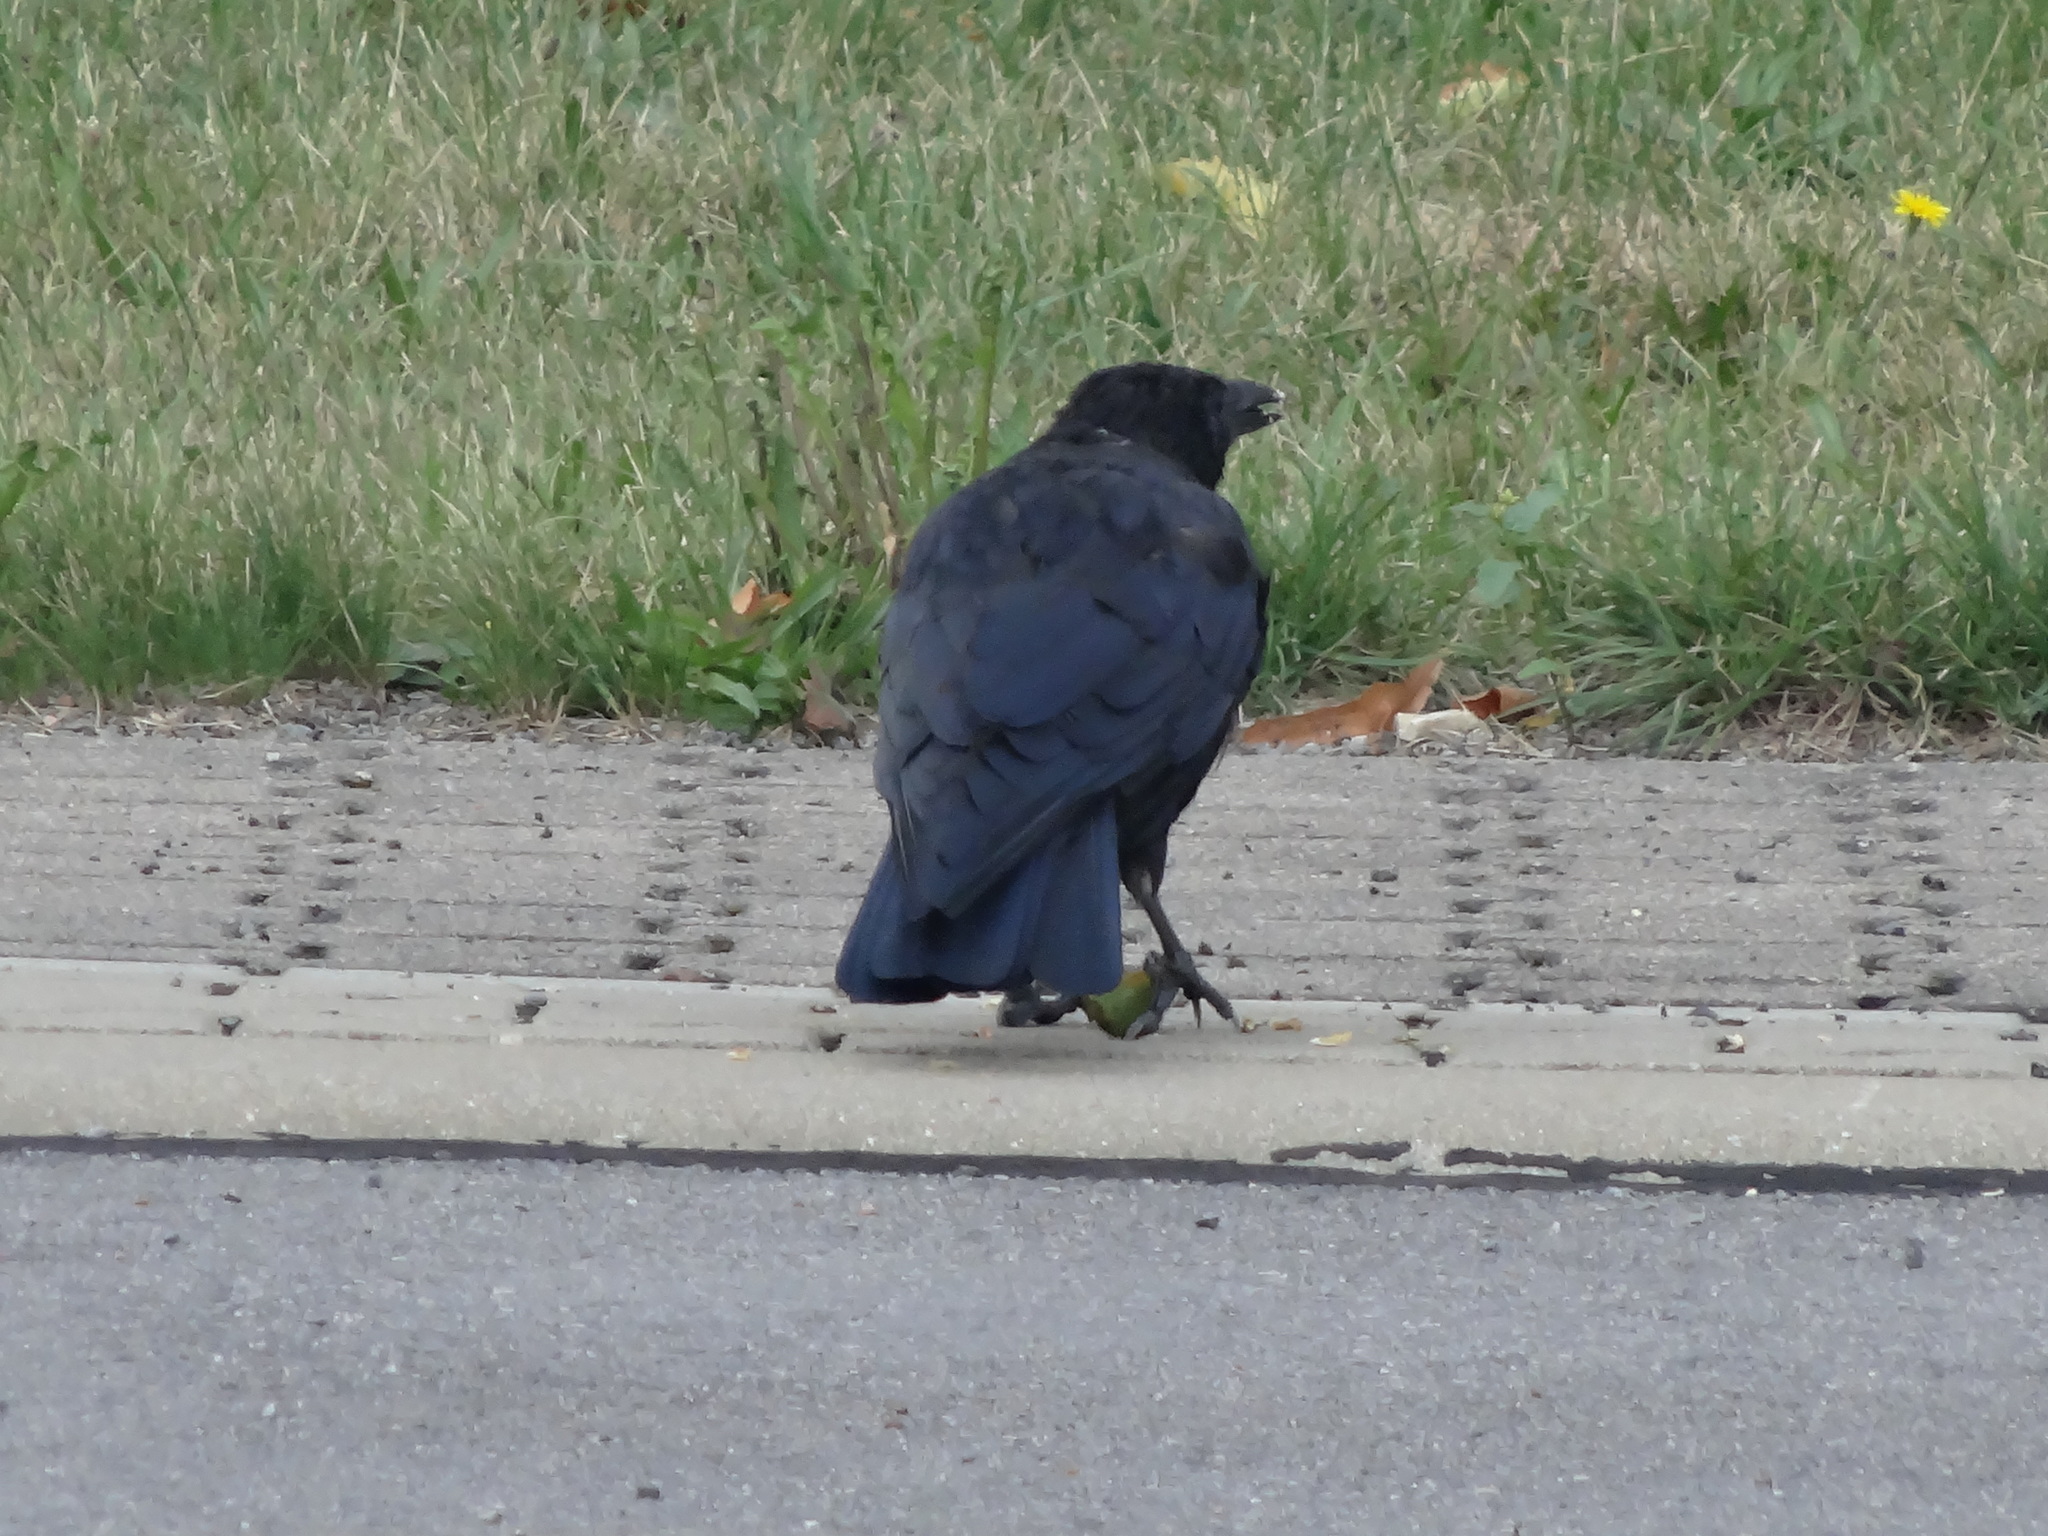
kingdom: Animalia
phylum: Chordata
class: Aves
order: Passeriformes
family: Corvidae
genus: Corvus
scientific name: Corvus corone
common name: Carrion crow
